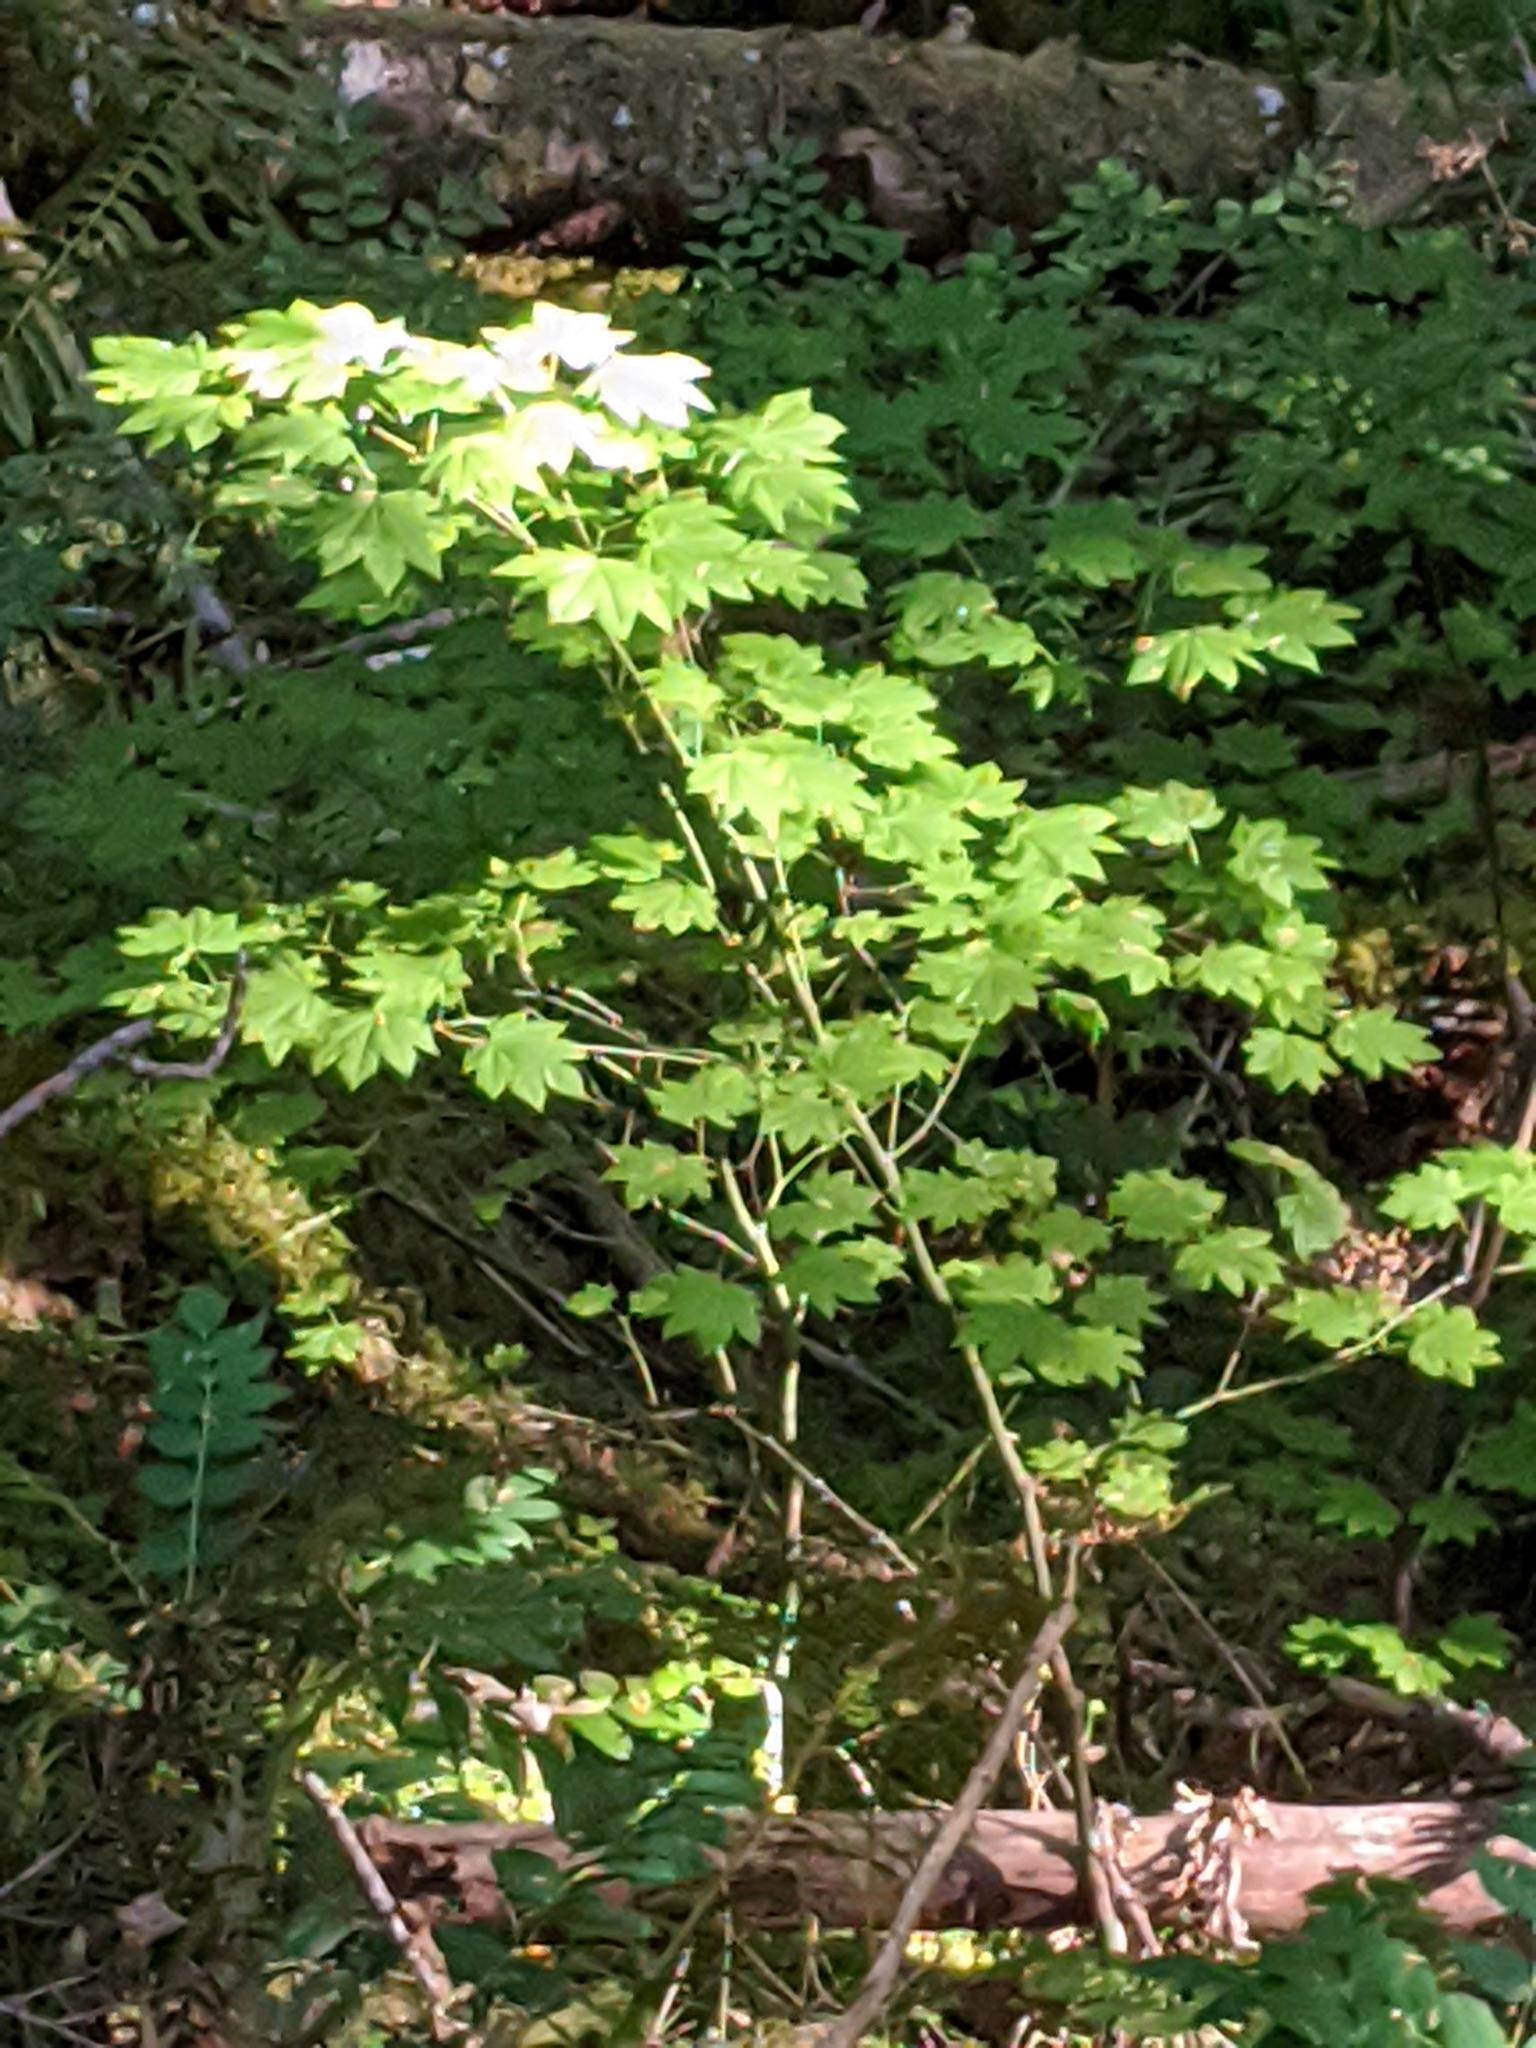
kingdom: Plantae
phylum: Tracheophyta
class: Magnoliopsida
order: Sapindales
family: Sapindaceae
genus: Acer
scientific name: Acer circinatum
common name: Vine maple
